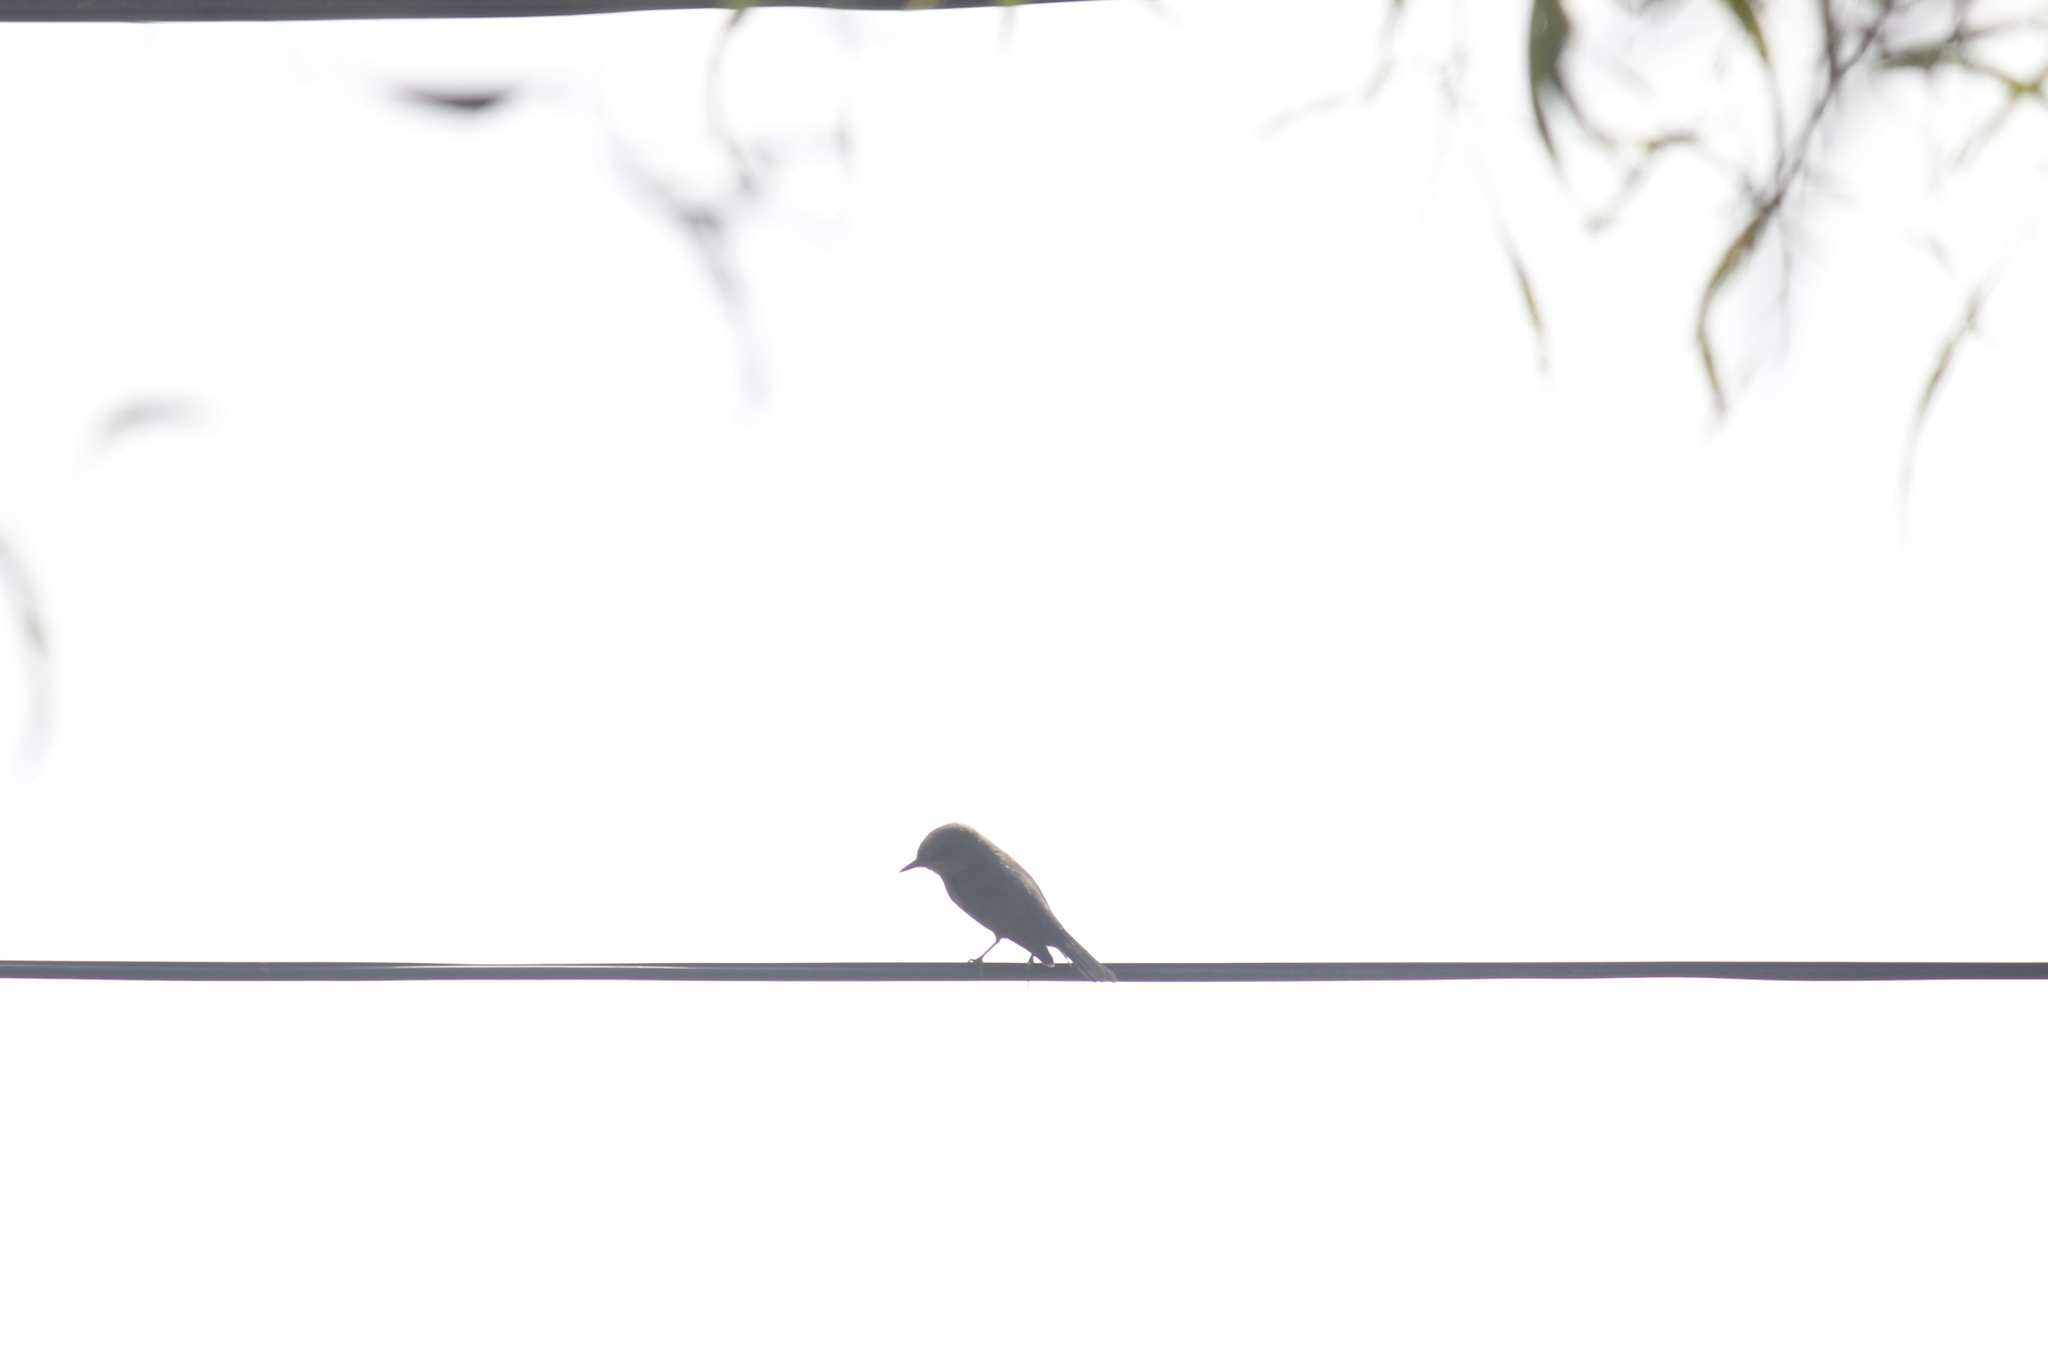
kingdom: Animalia
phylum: Chordata
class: Aves
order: Passeriformes
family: Tyrannidae
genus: Pyrocephalus
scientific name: Pyrocephalus rubinus
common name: Vermilion flycatcher
